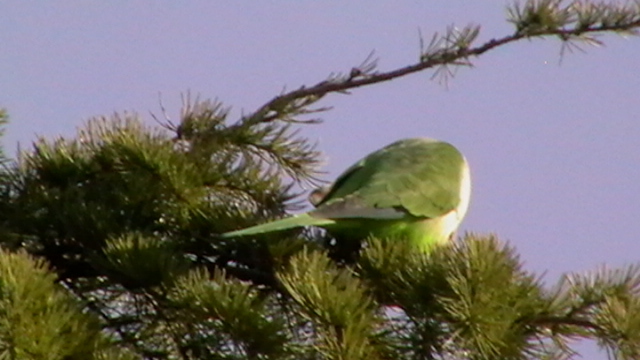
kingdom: Animalia
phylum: Chordata
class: Aves
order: Psittaciformes
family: Psittacidae
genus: Myiopsitta
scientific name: Myiopsitta monachus
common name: Monk parakeet
